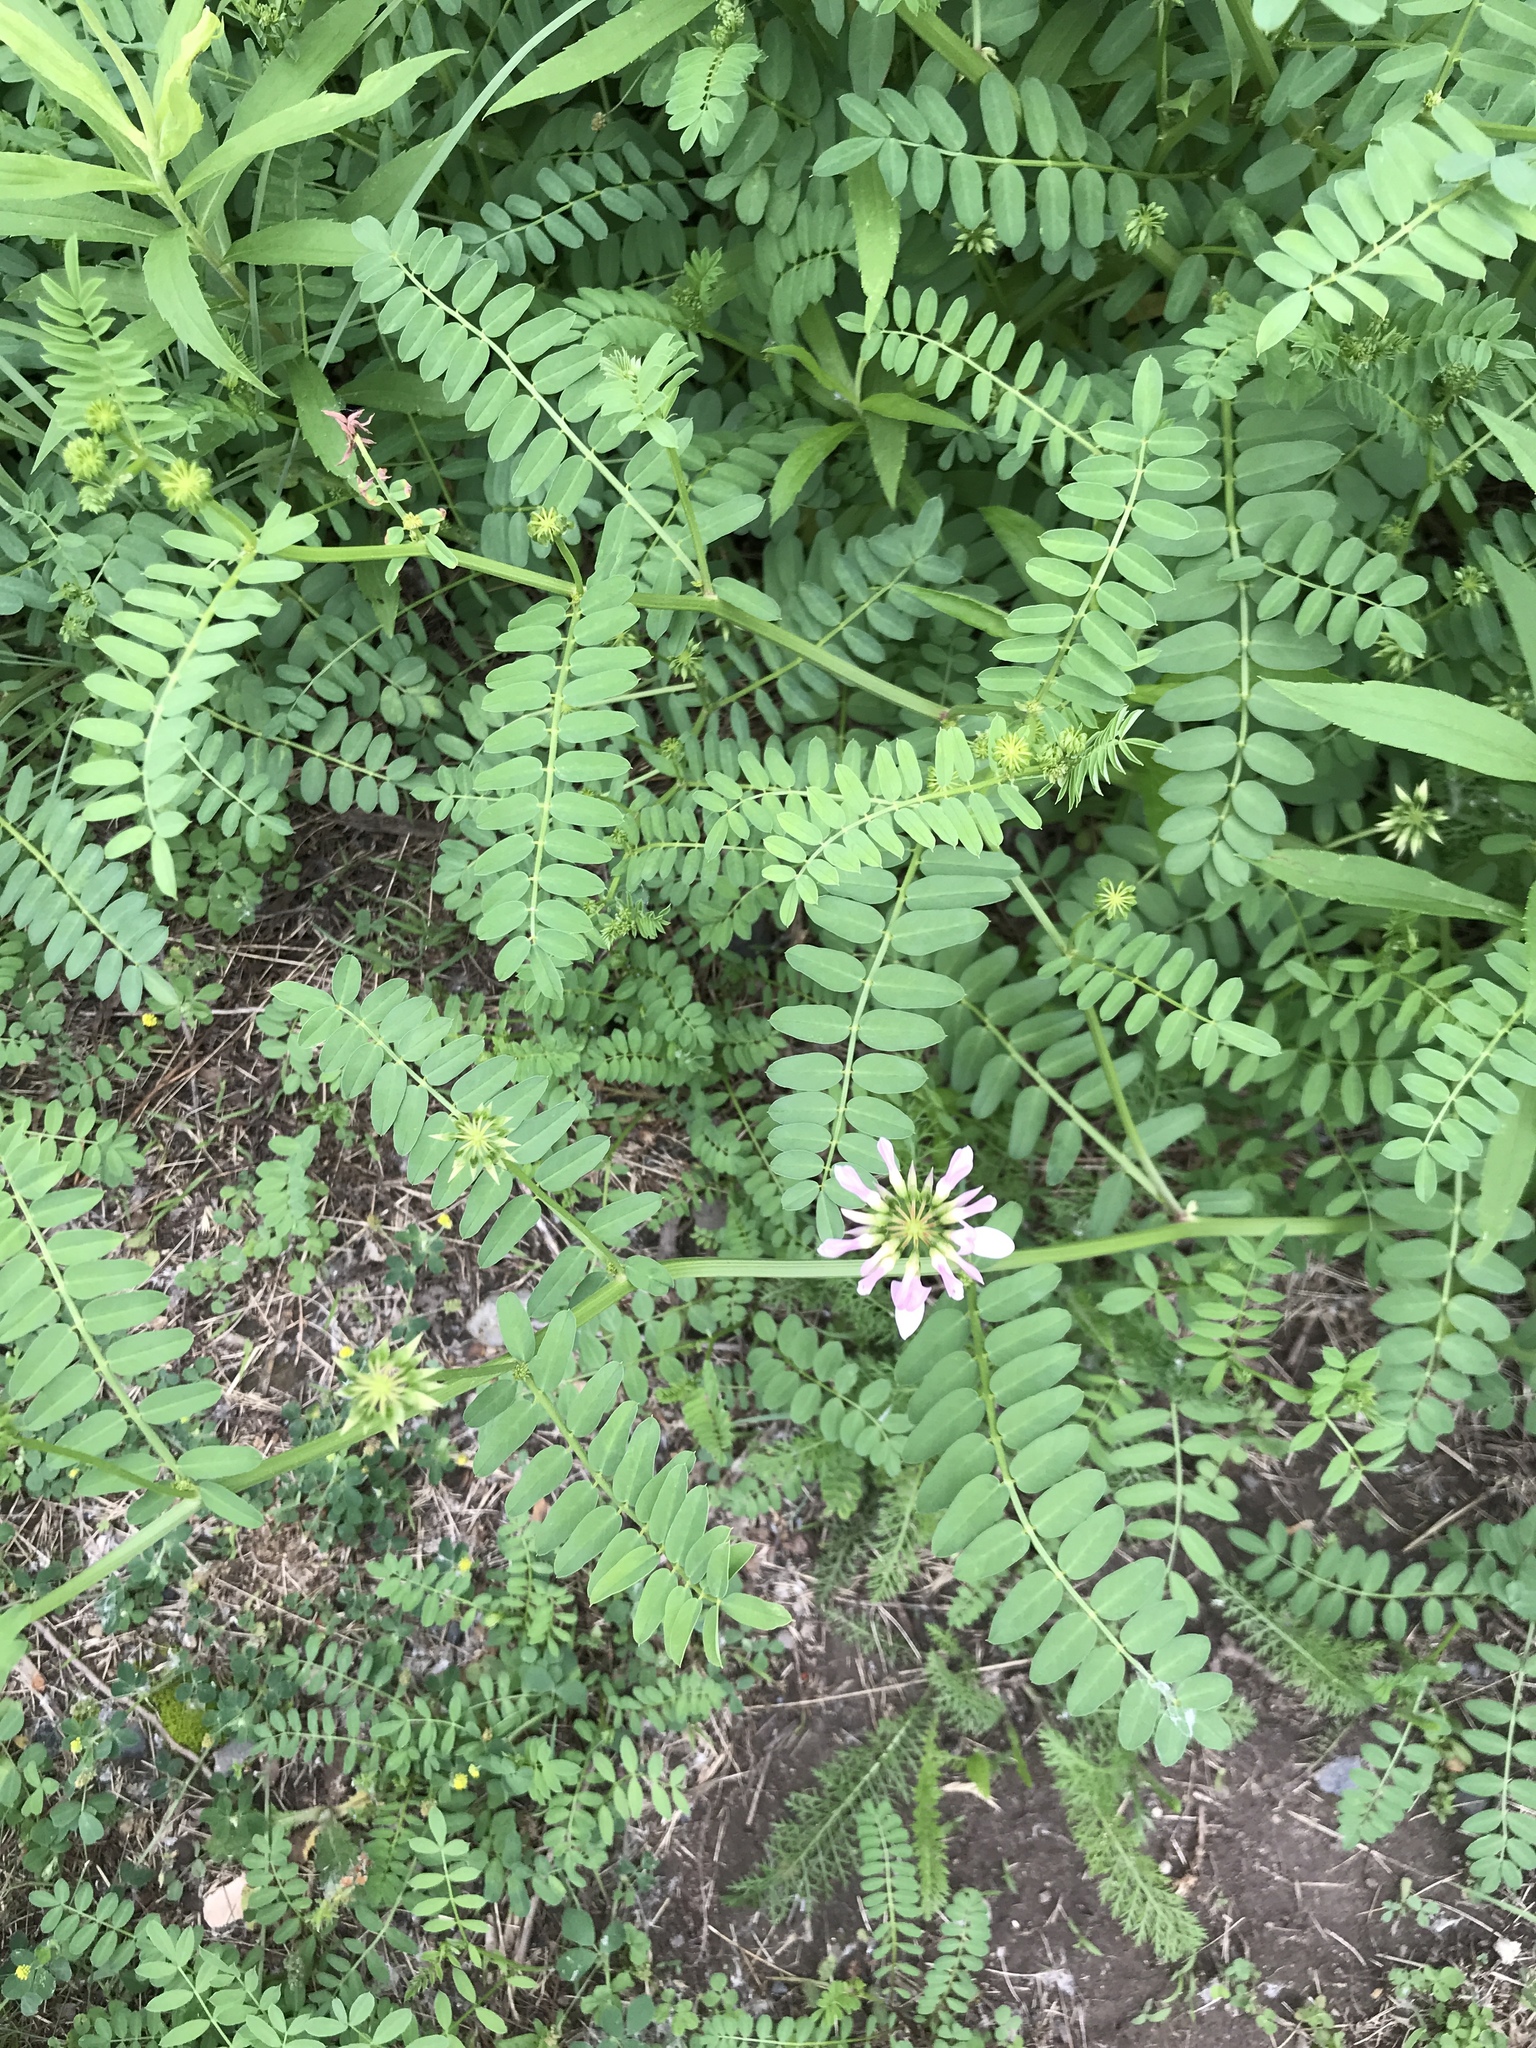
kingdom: Plantae
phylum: Tracheophyta
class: Magnoliopsida
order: Fabales
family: Fabaceae
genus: Coronilla
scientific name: Coronilla varia
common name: Crownvetch
